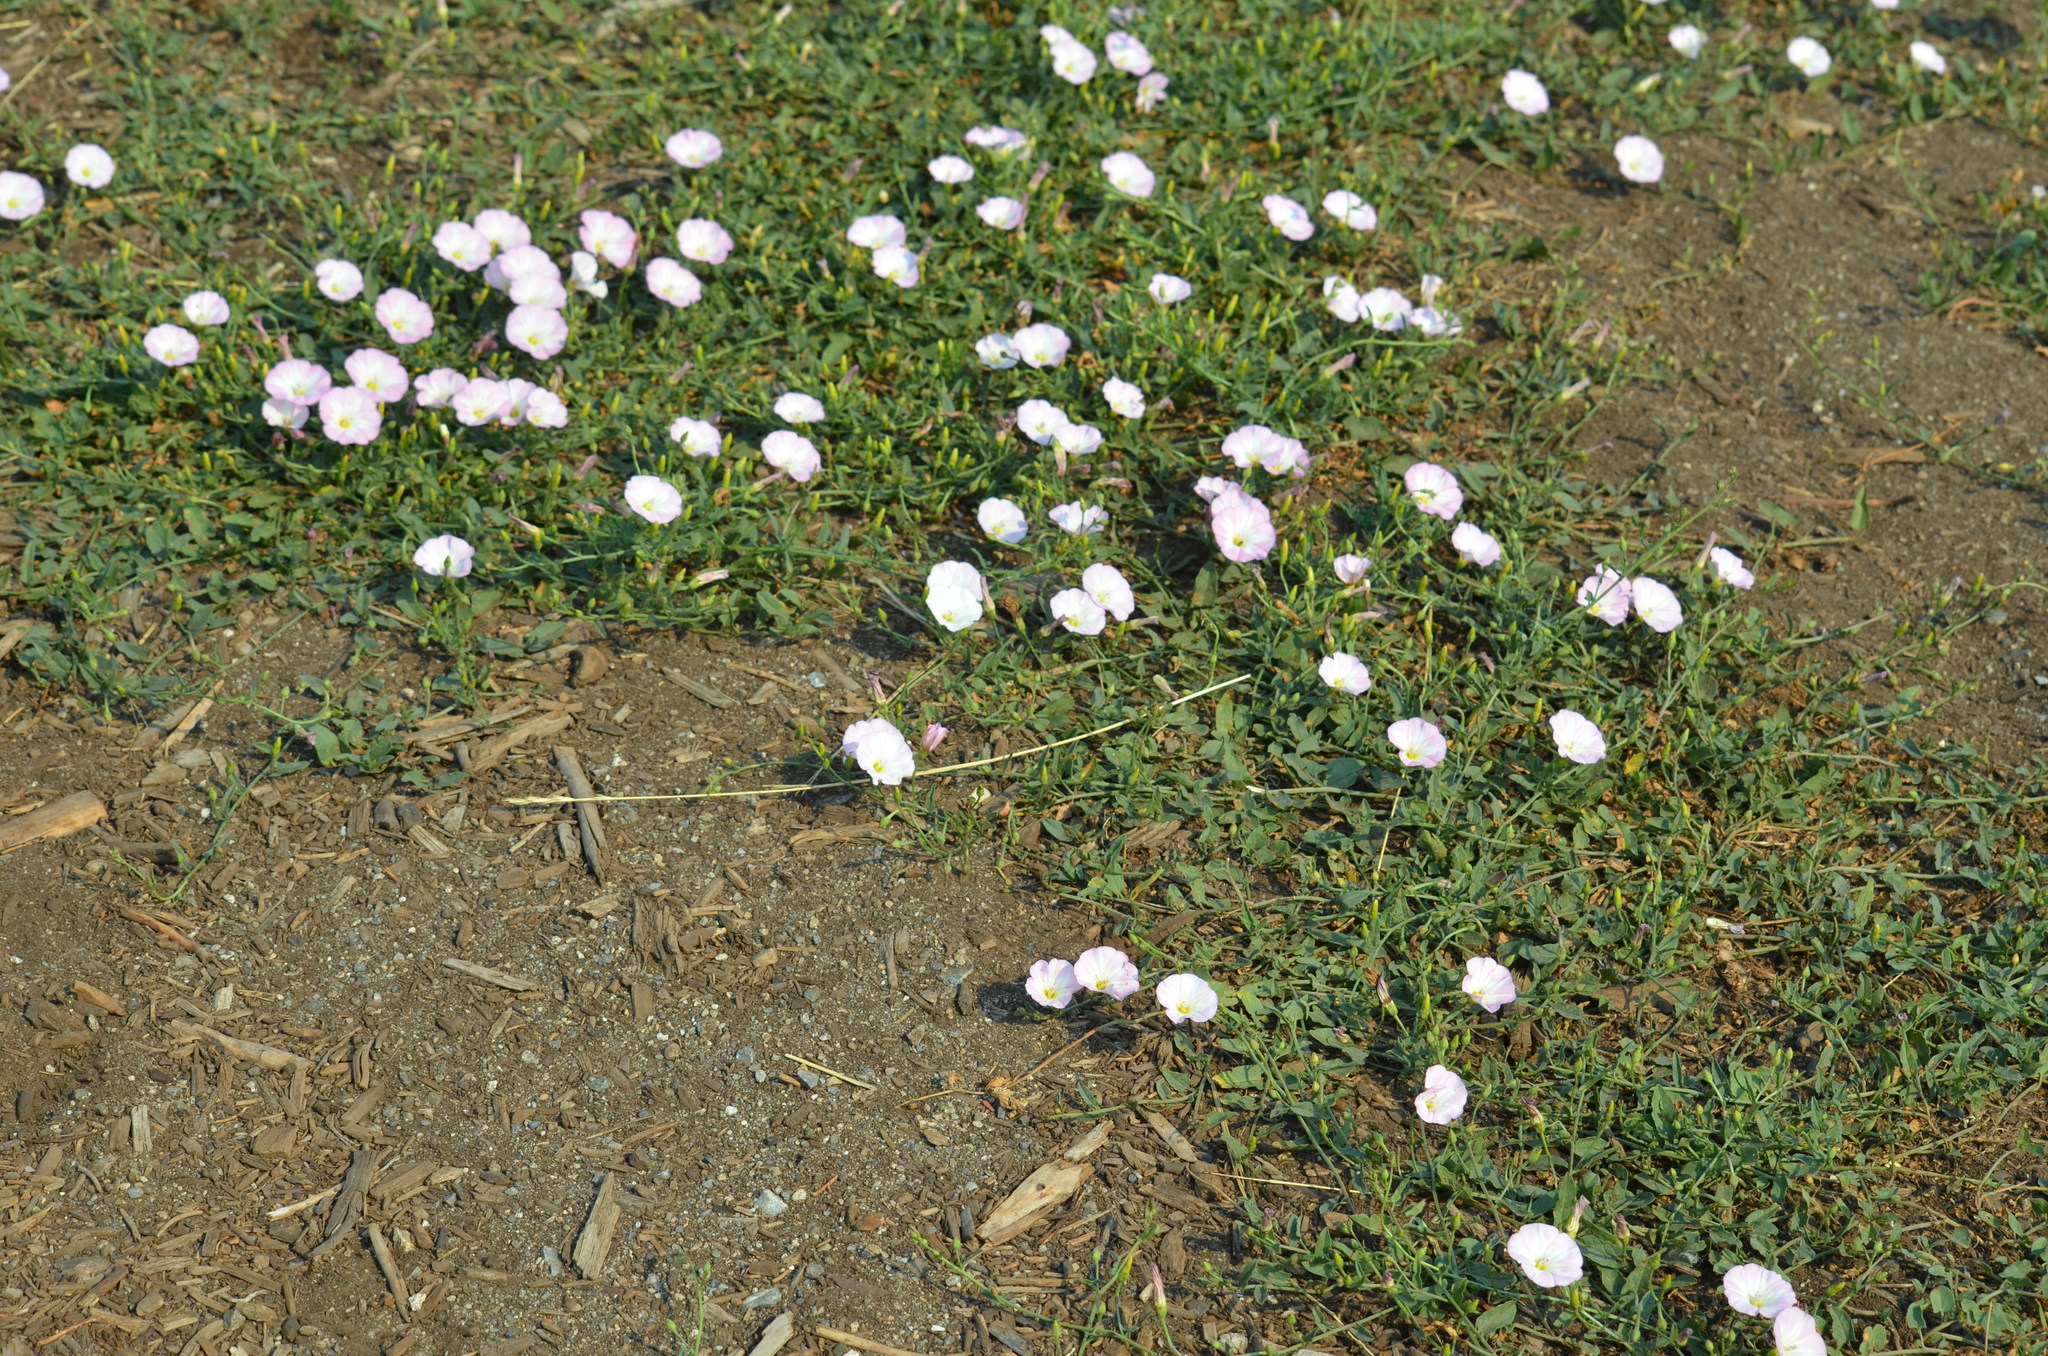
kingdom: Plantae
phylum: Tracheophyta
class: Magnoliopsida
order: Solanales
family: Convolvulaceae
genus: Convolvulus
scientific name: Convolvulus arvensis
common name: Field bindweed
